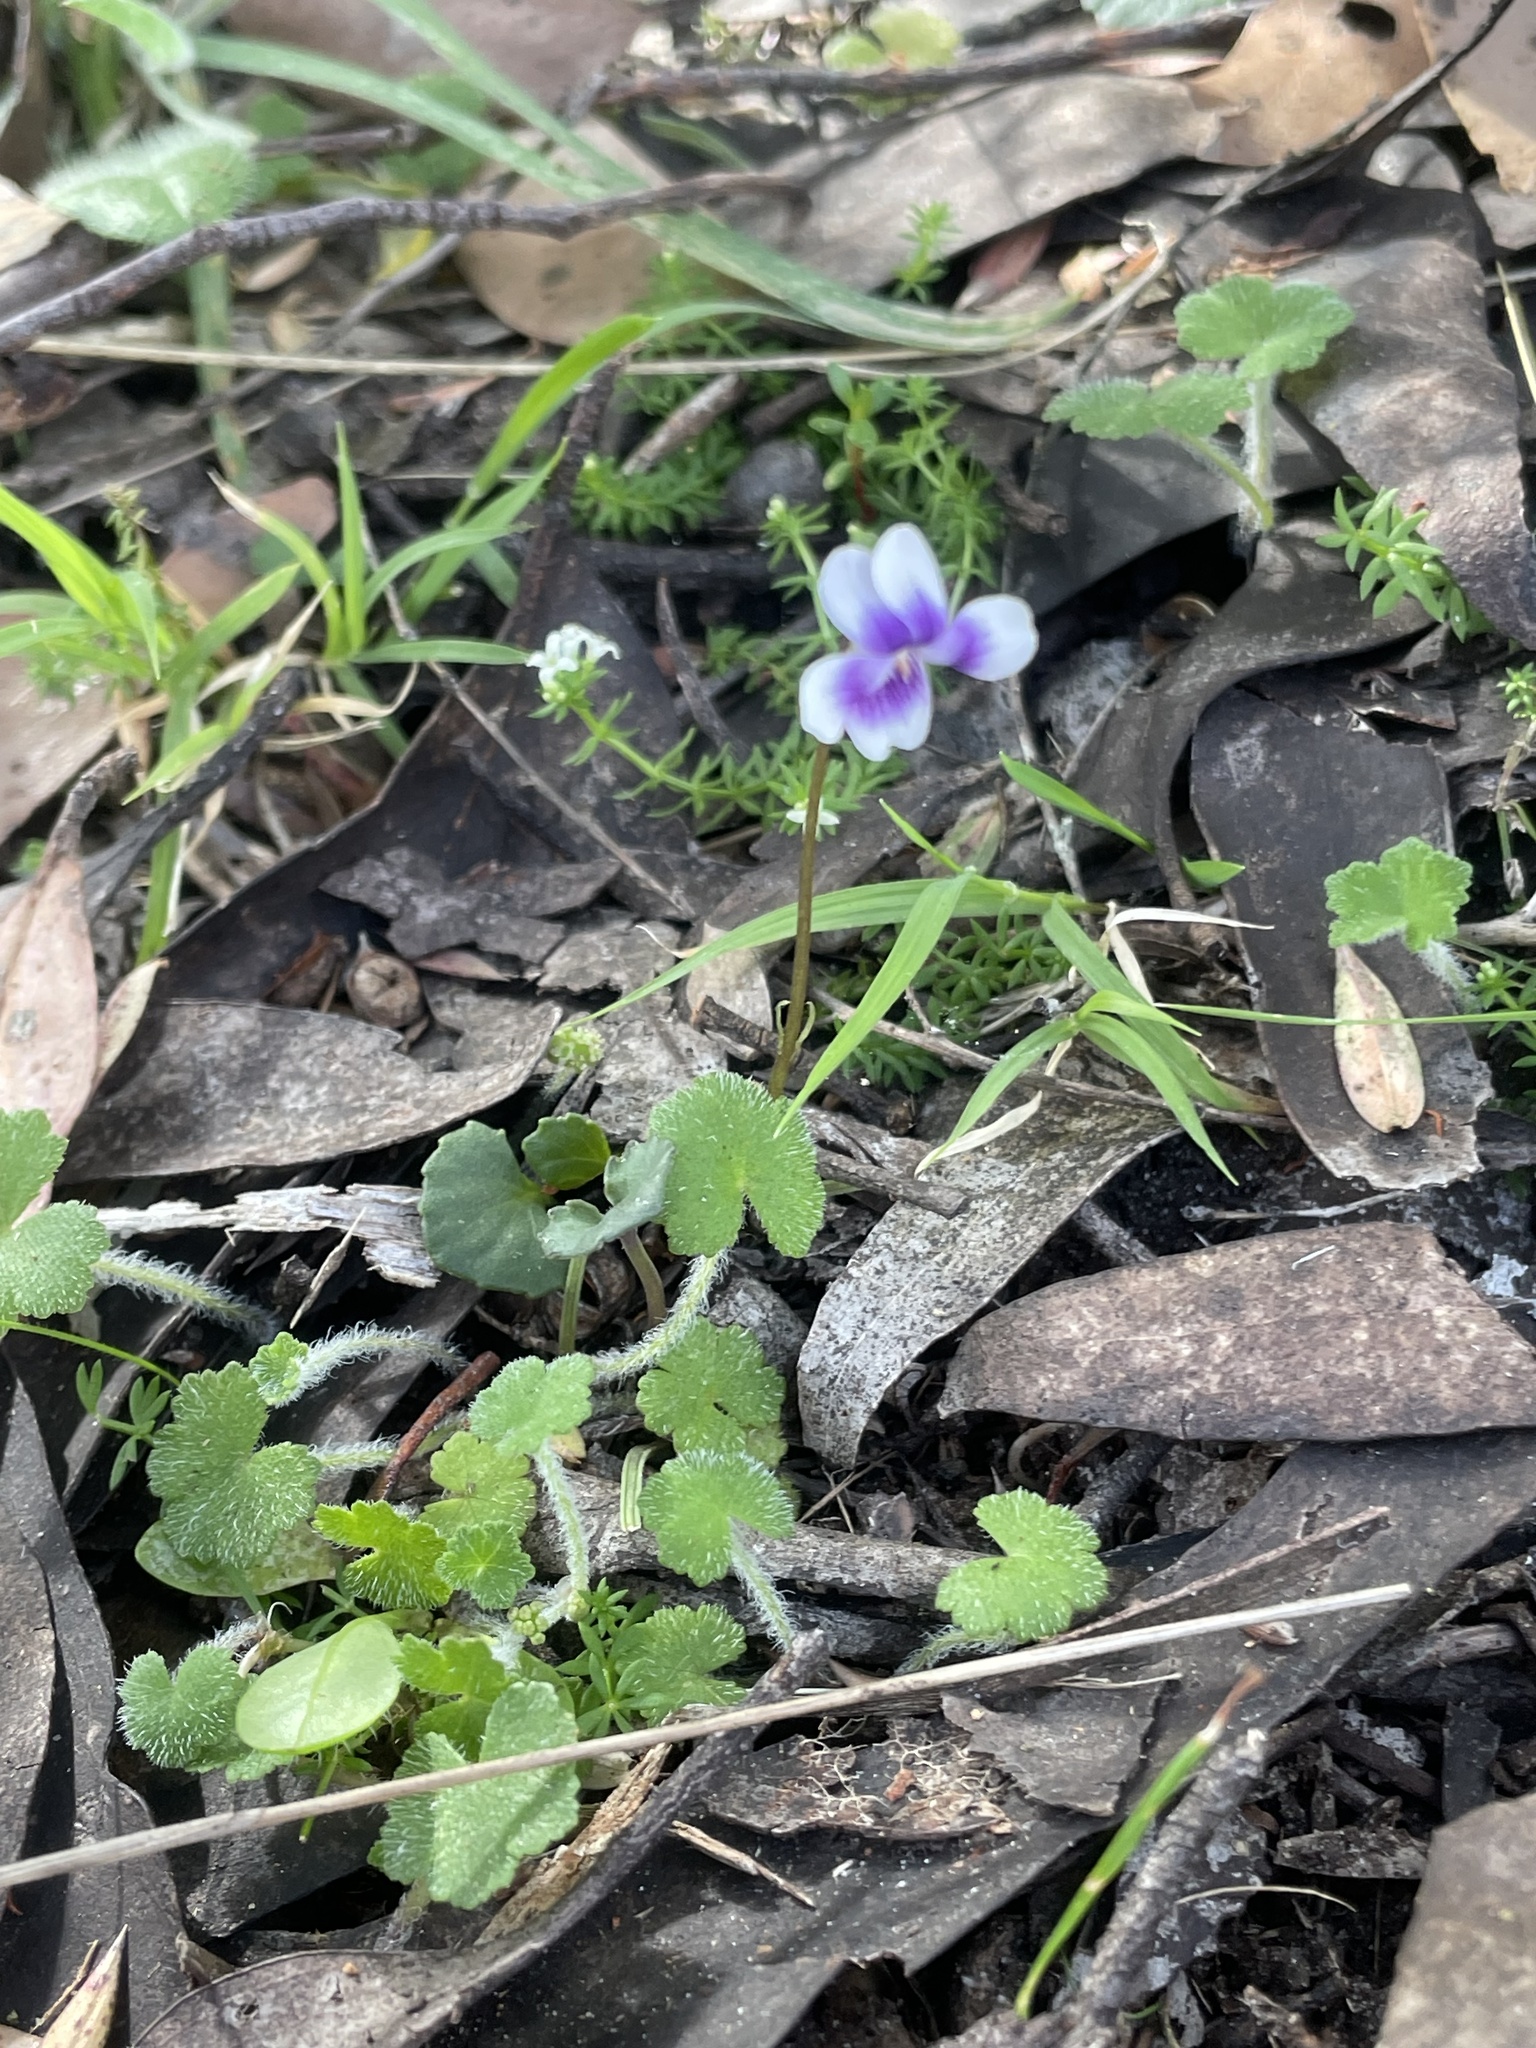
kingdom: Plantae
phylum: Tracheophyta
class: Magnoliopsida
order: Malpighiales
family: Violaceae
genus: Viola
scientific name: Viola hederacea
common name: Australian violet
